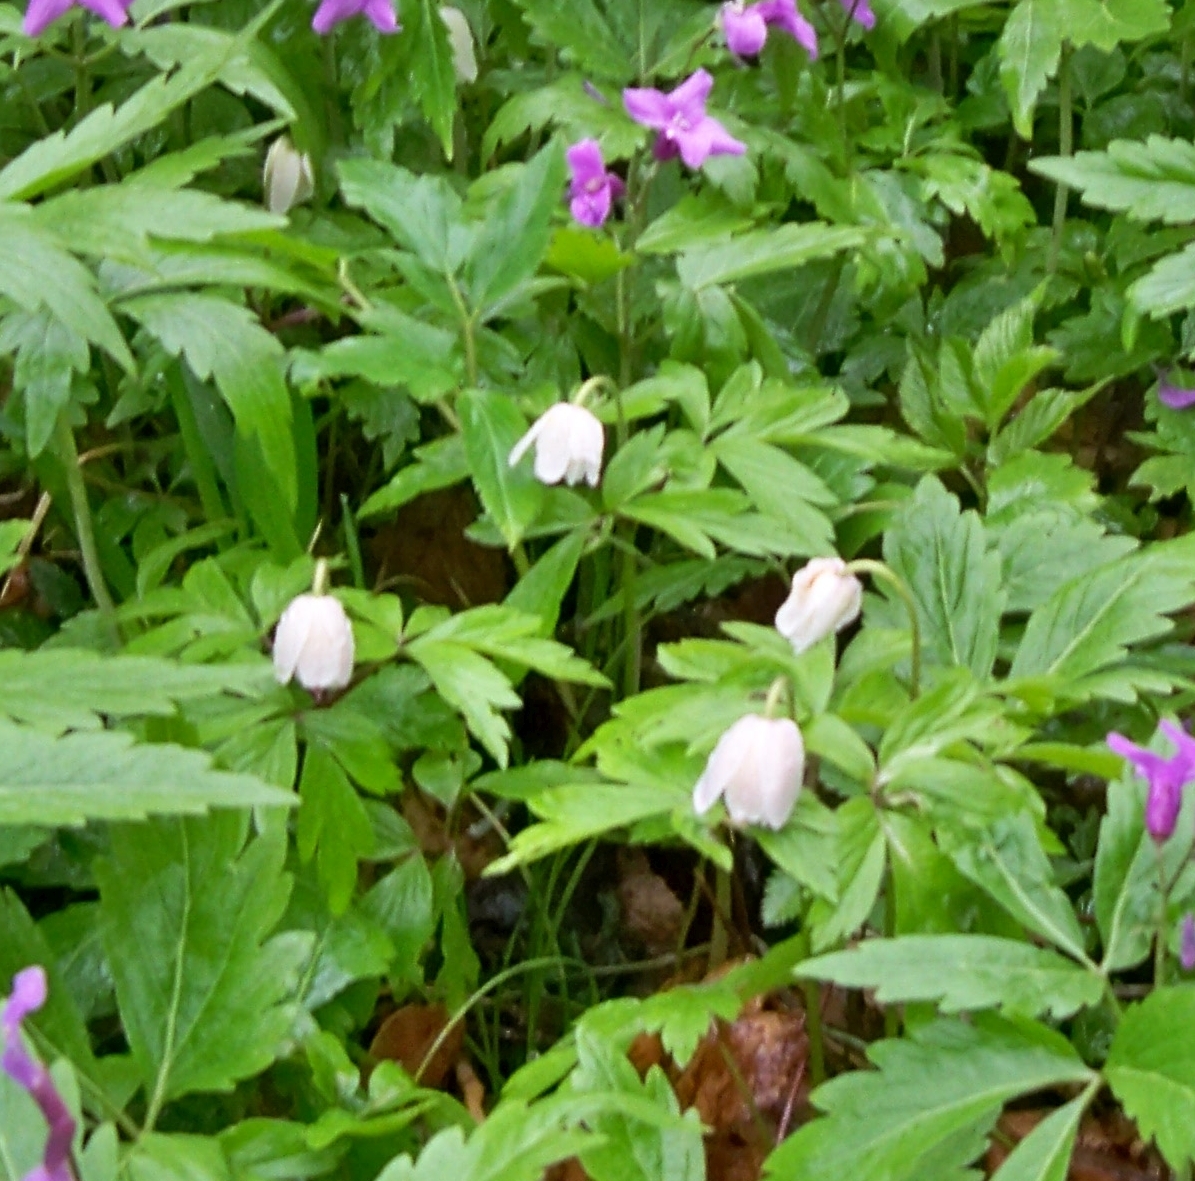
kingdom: Plantae
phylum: Tracheophyta
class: Magnoliopsida
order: Ranunculales
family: Ranunculaceae
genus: Anemone
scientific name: Anemone nemorosa
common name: Wood anemone
